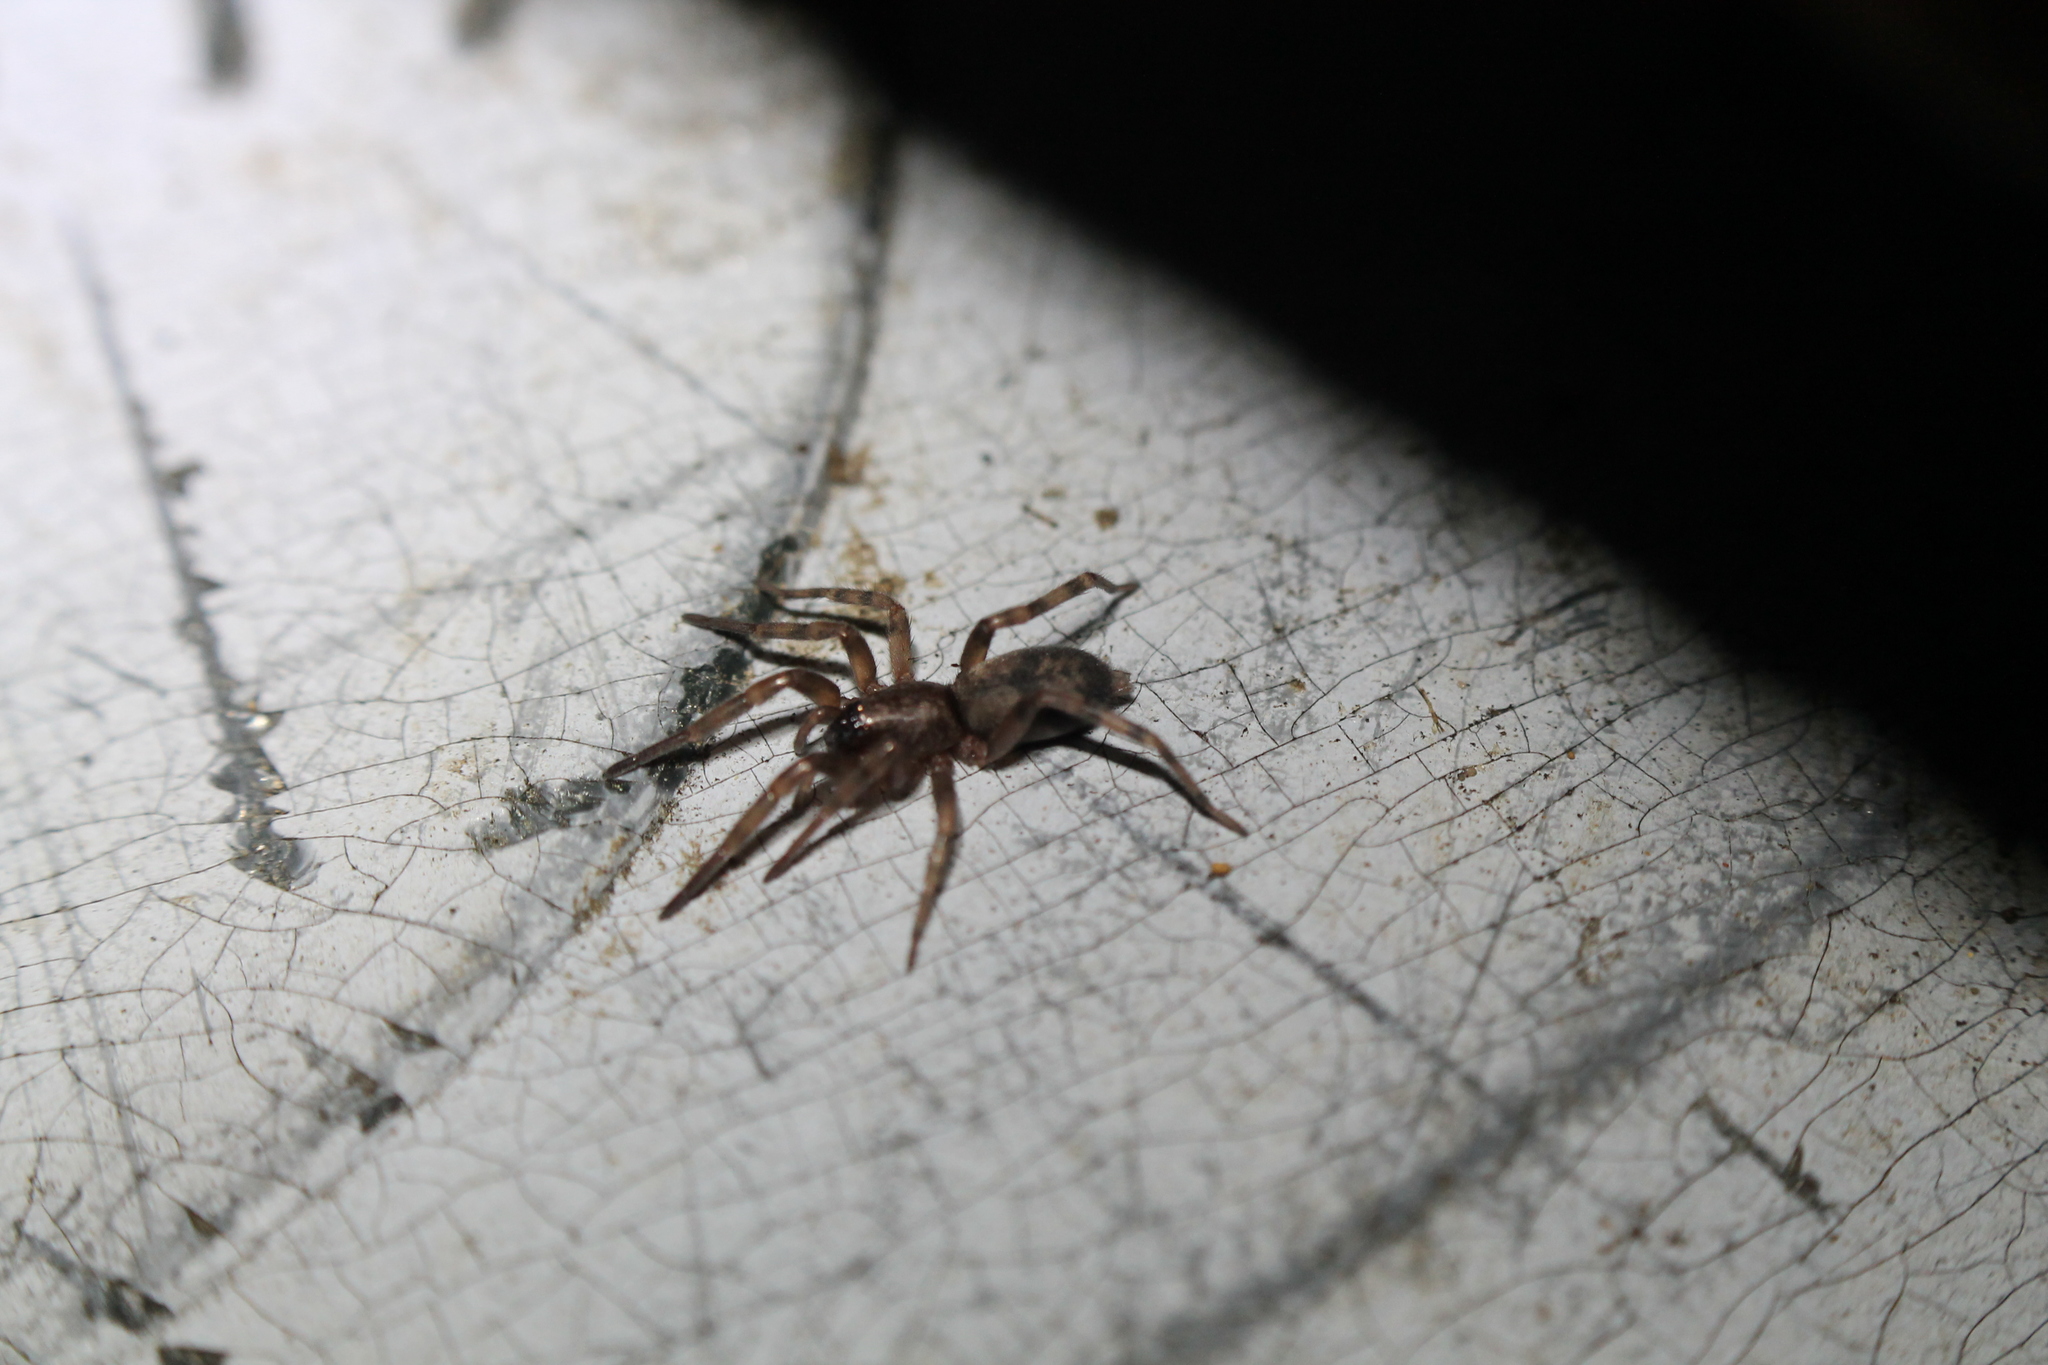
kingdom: Animalia
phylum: Arthropoda
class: Arachnida
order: Araneae
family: Gnaphosidae
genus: Intruda
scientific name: Intruda signata
